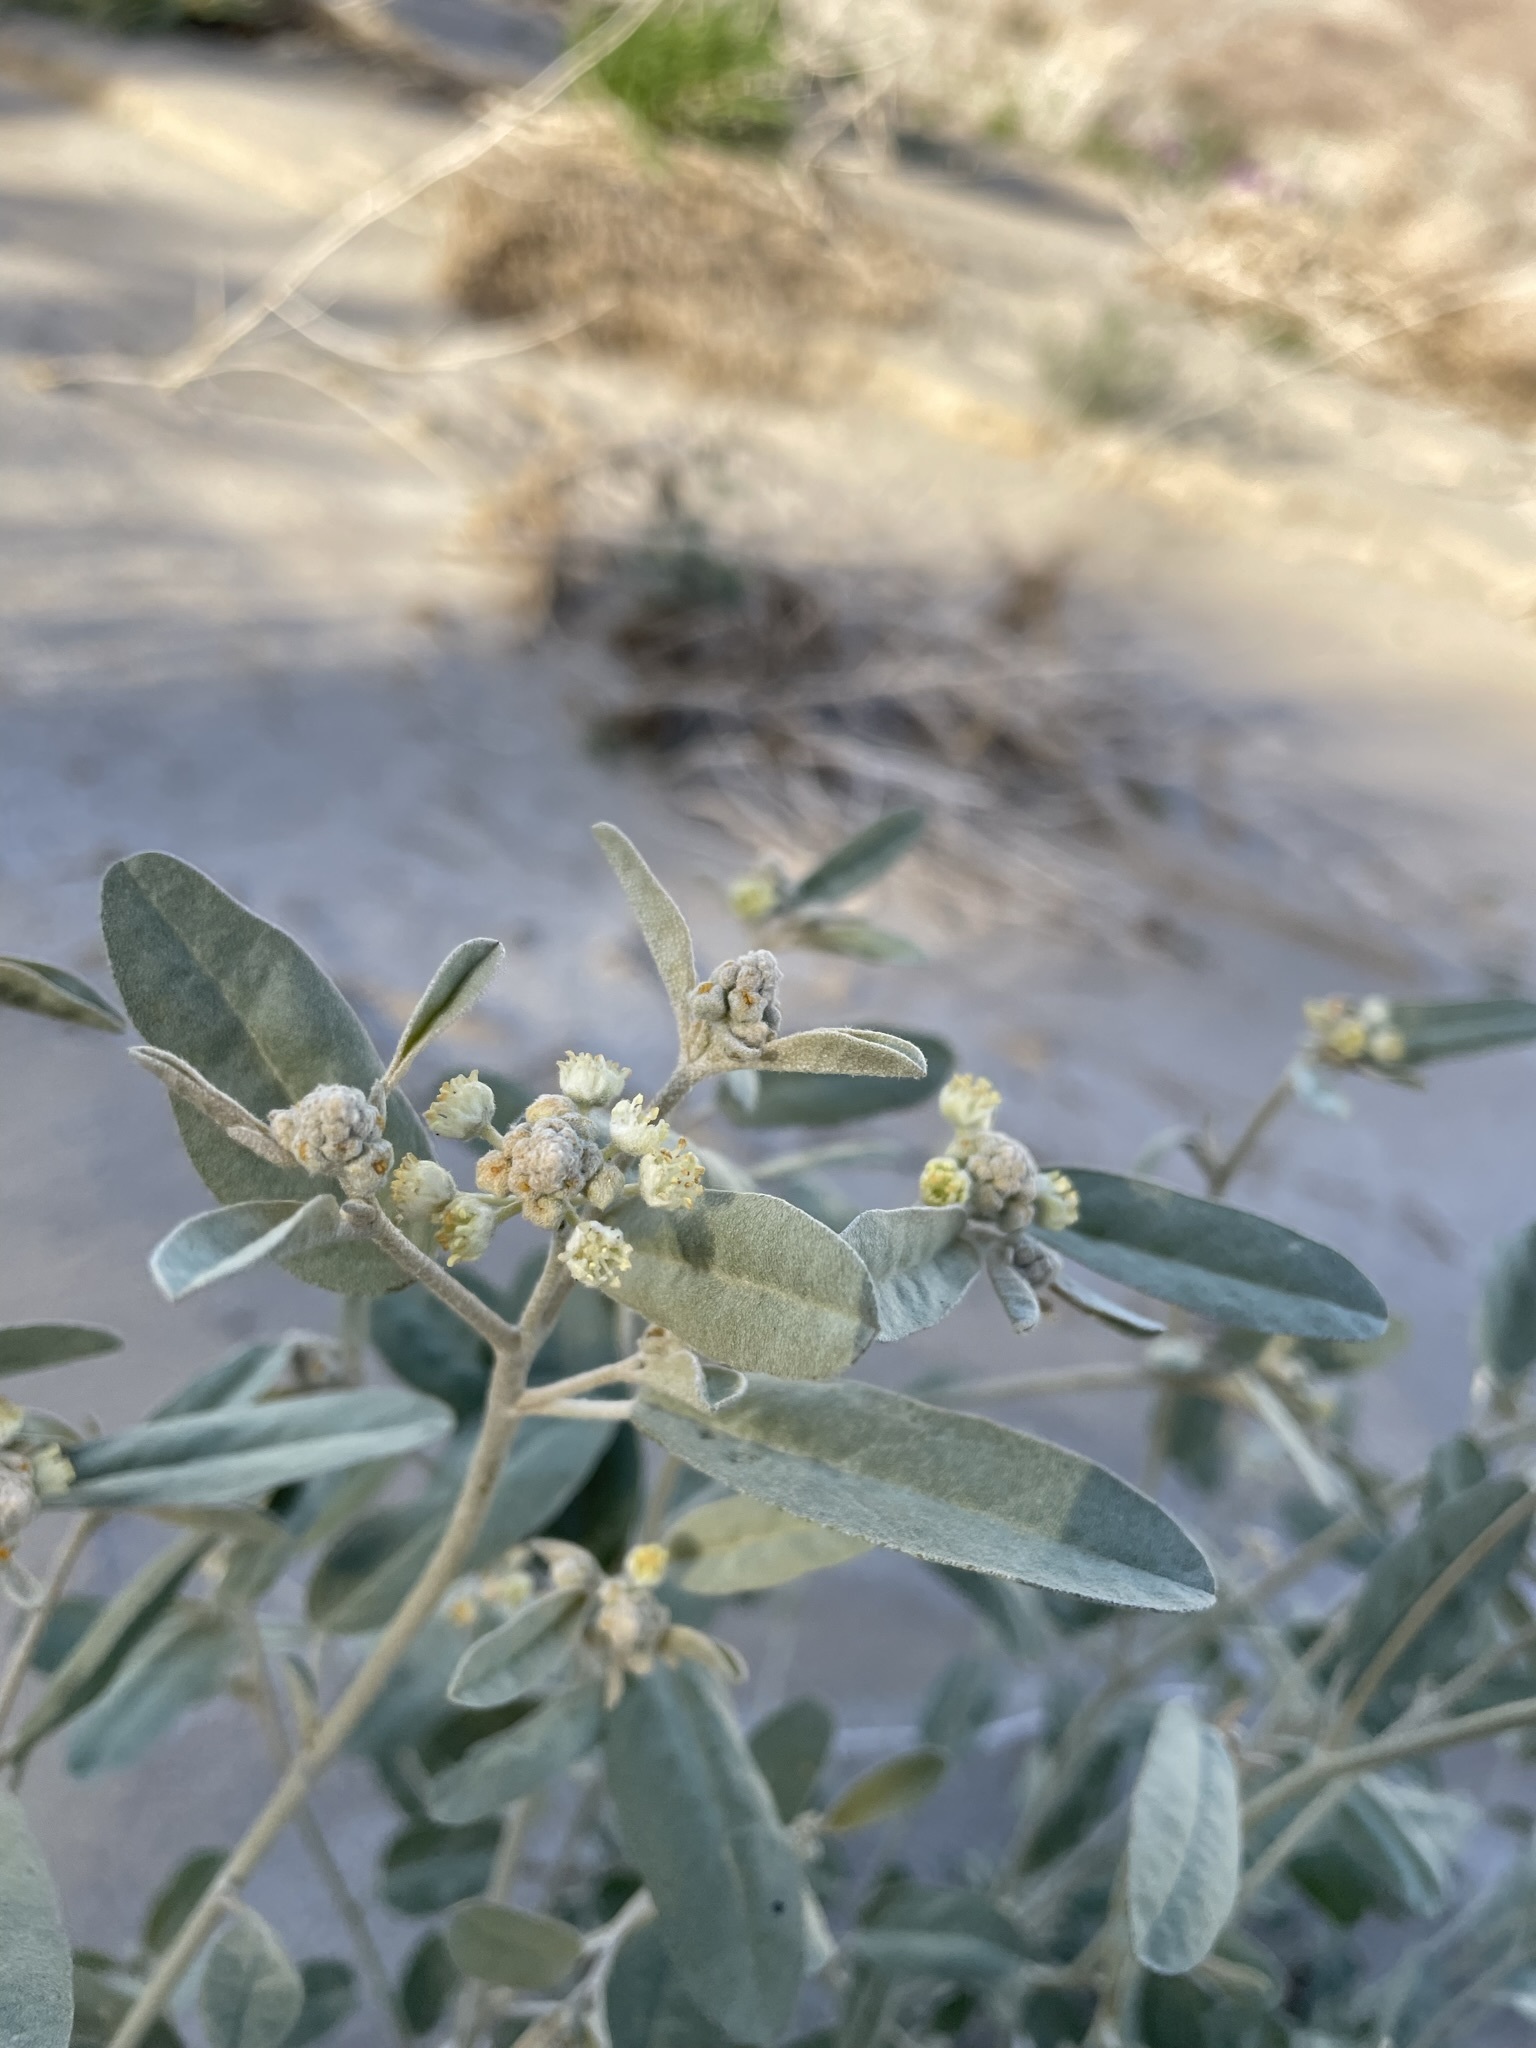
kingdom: Plantae
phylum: Tracheophyta
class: Magnoliopsida
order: Malpighiales
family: Euphorbiaceae
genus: Croton
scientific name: Croton californicus
